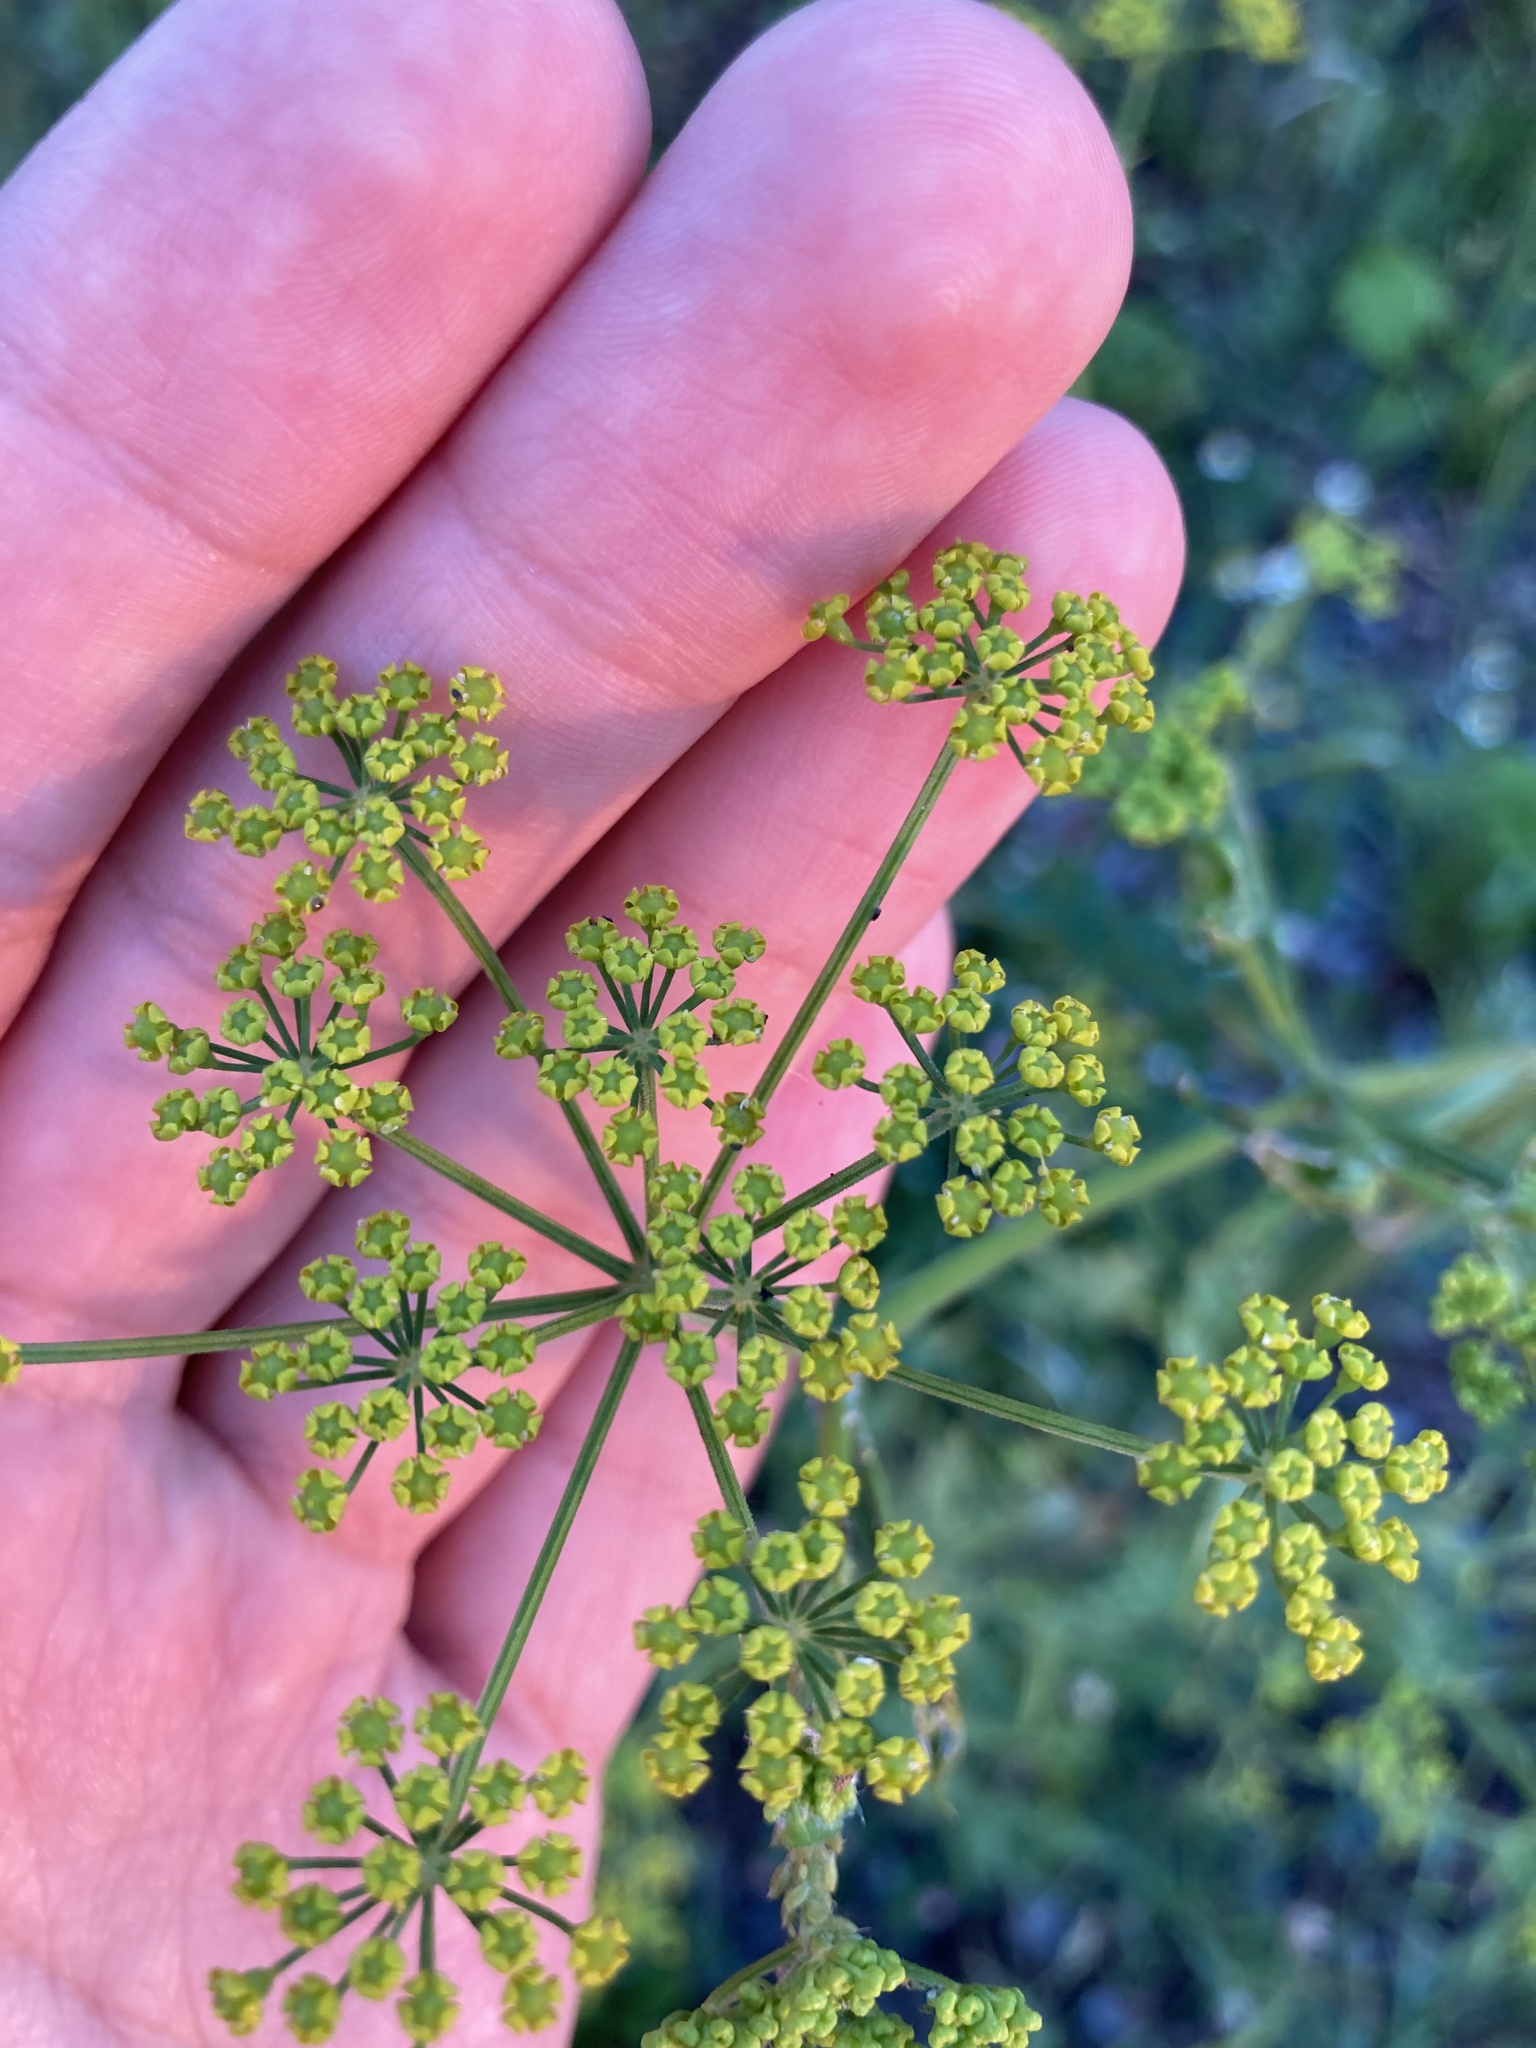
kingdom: Plantae
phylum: Tracheophyta
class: Magnoliopsida
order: Apiales
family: Apiaceae
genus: Pastinaca
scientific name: Pastinaca sativa
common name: Wild parsnip
